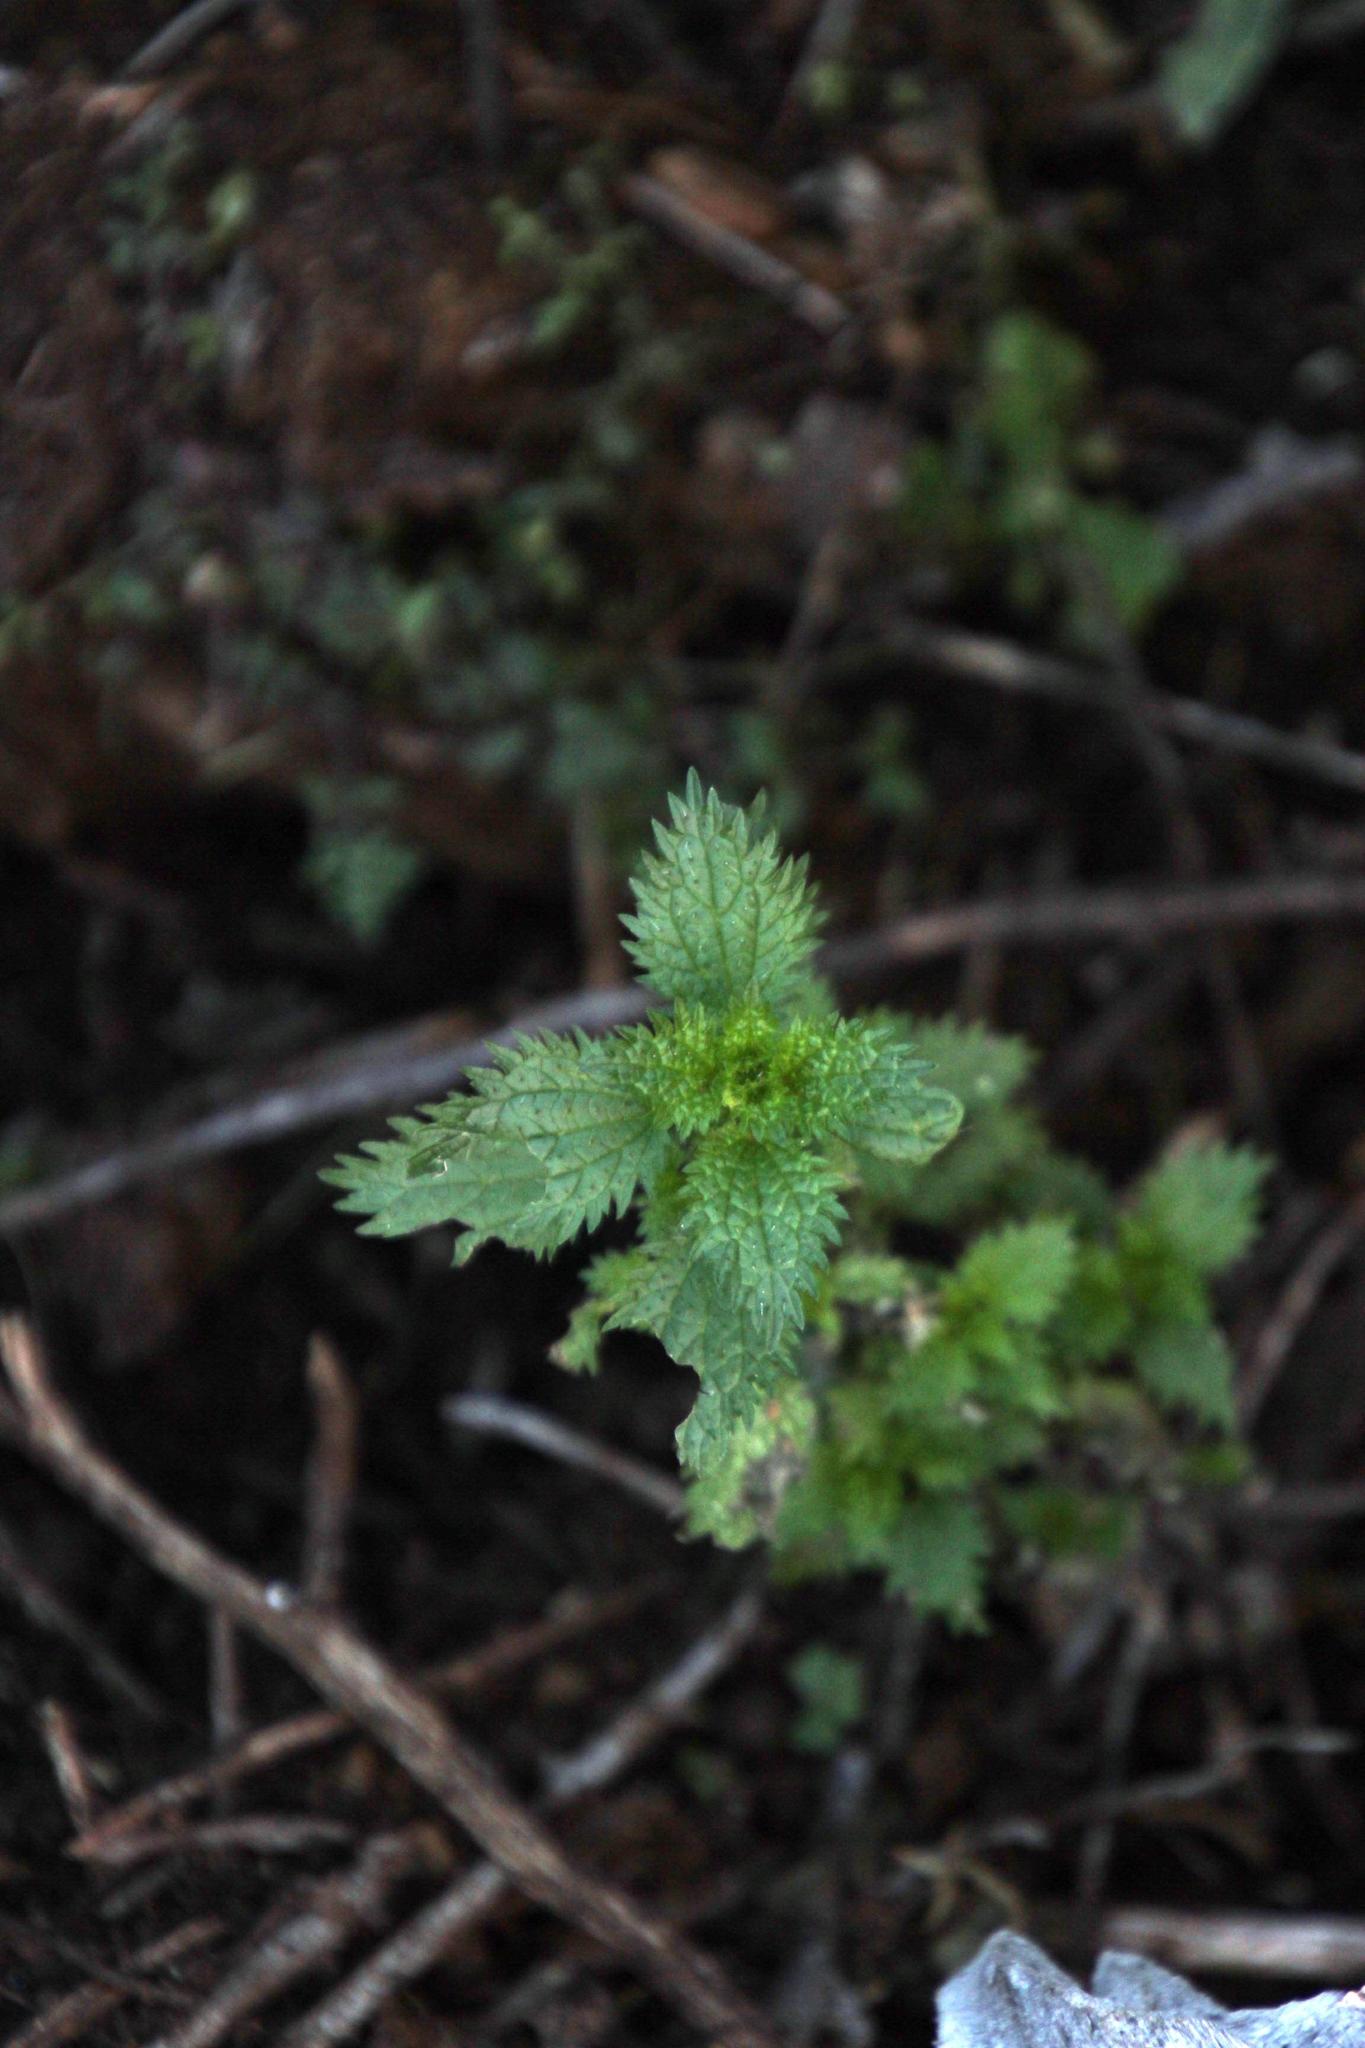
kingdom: Plantae
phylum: Tracheophyta
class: Magnoliopsida
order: Rosales
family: Urticaceae
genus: Urtica
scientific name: Urtica urens
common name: Dwarf nettle
